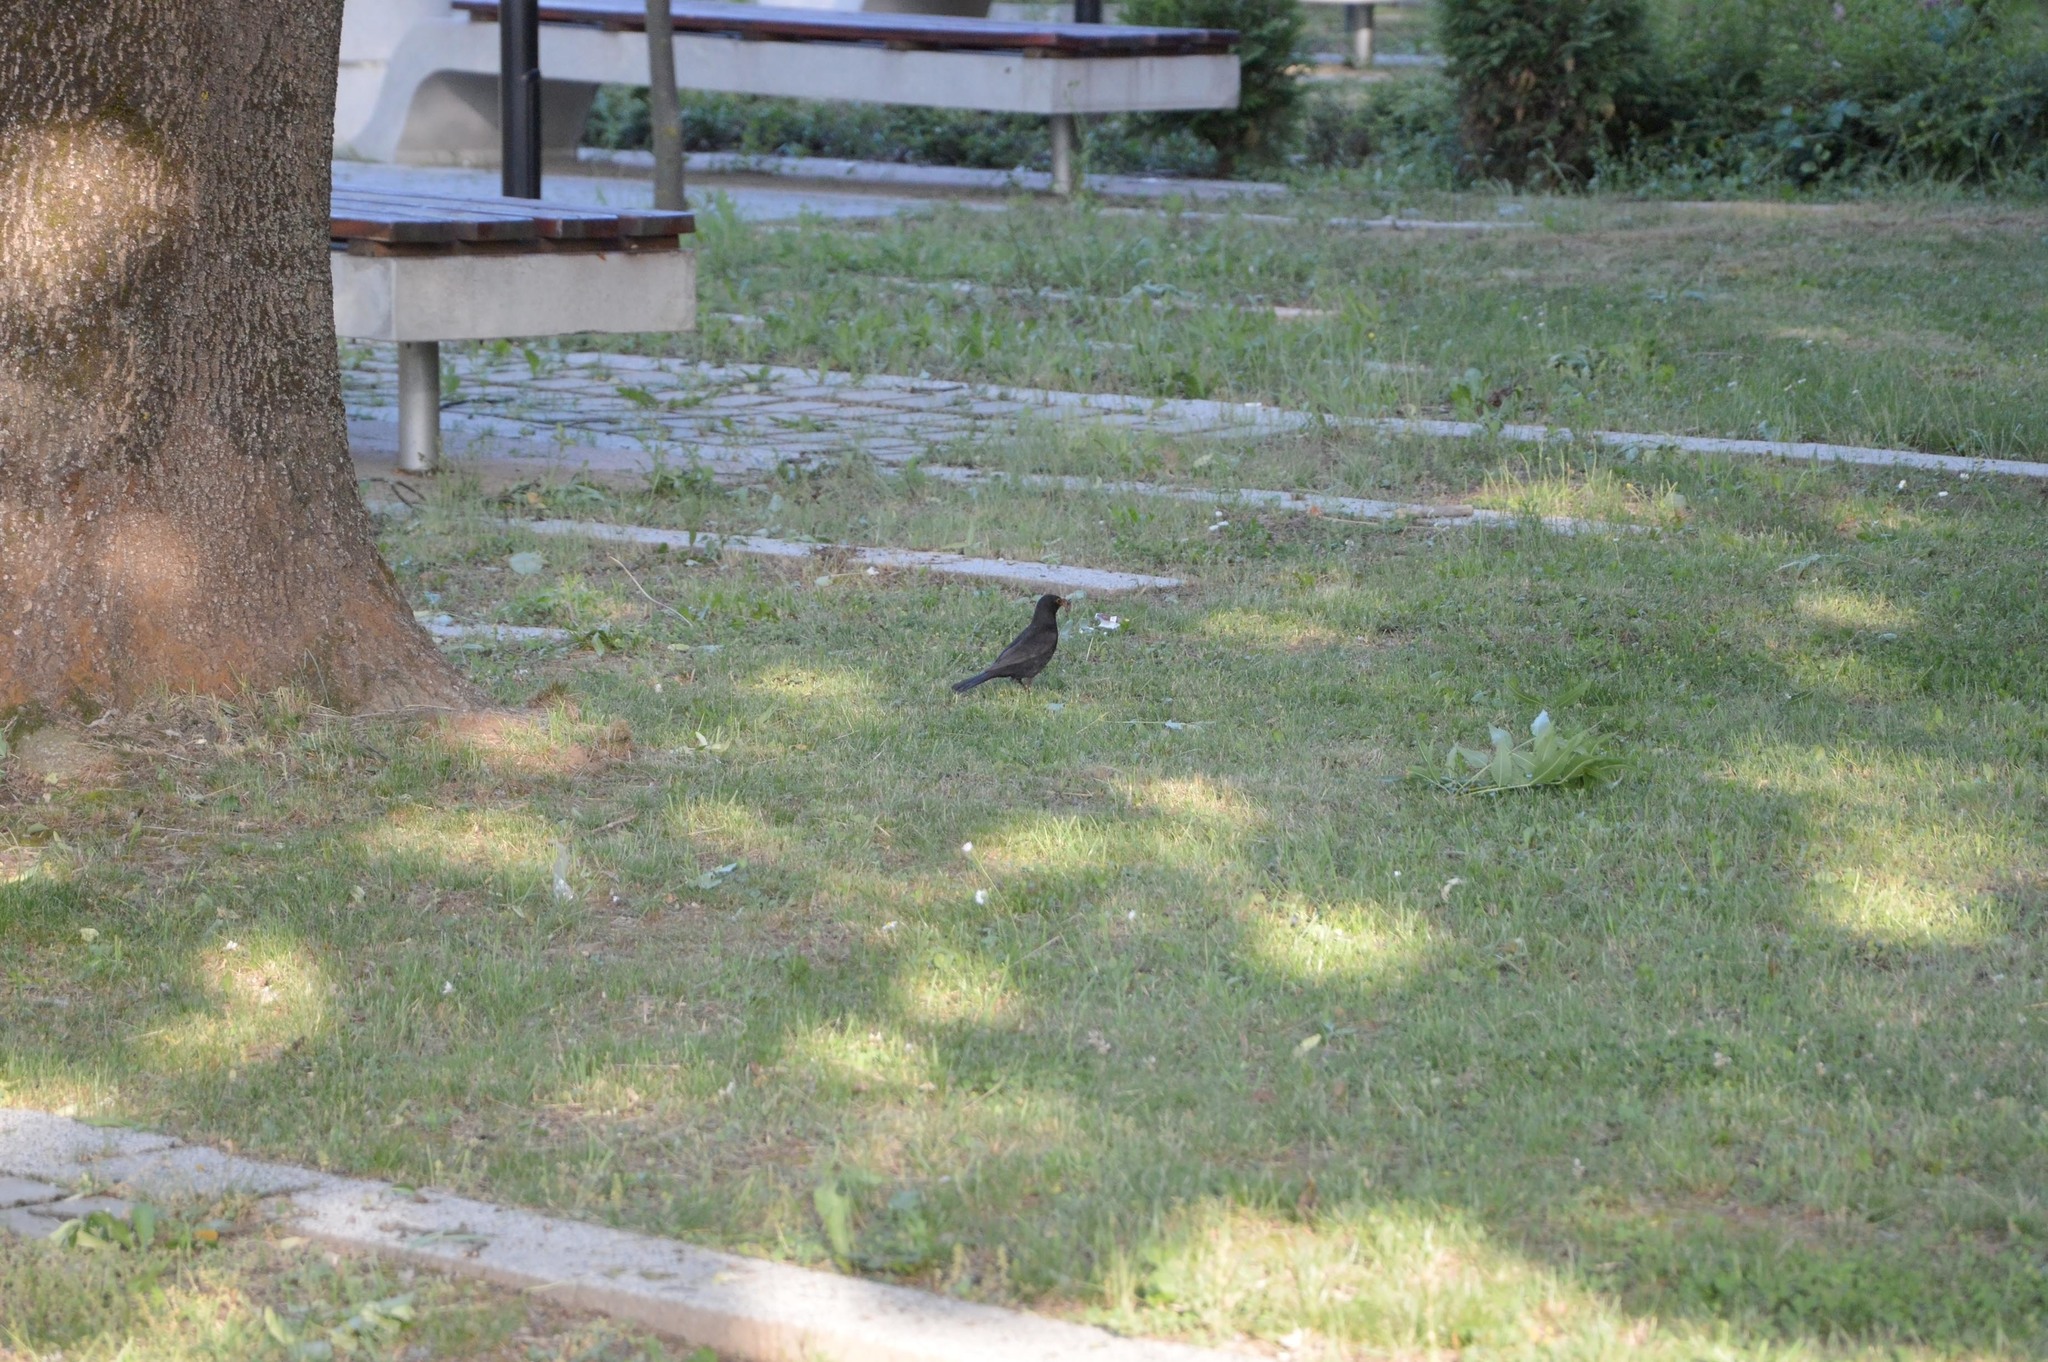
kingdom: Animalia
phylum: Chordata
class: Aves
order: Passeriformes
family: Turdidae
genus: Turdus
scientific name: Turdus merula
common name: Common blackbird
